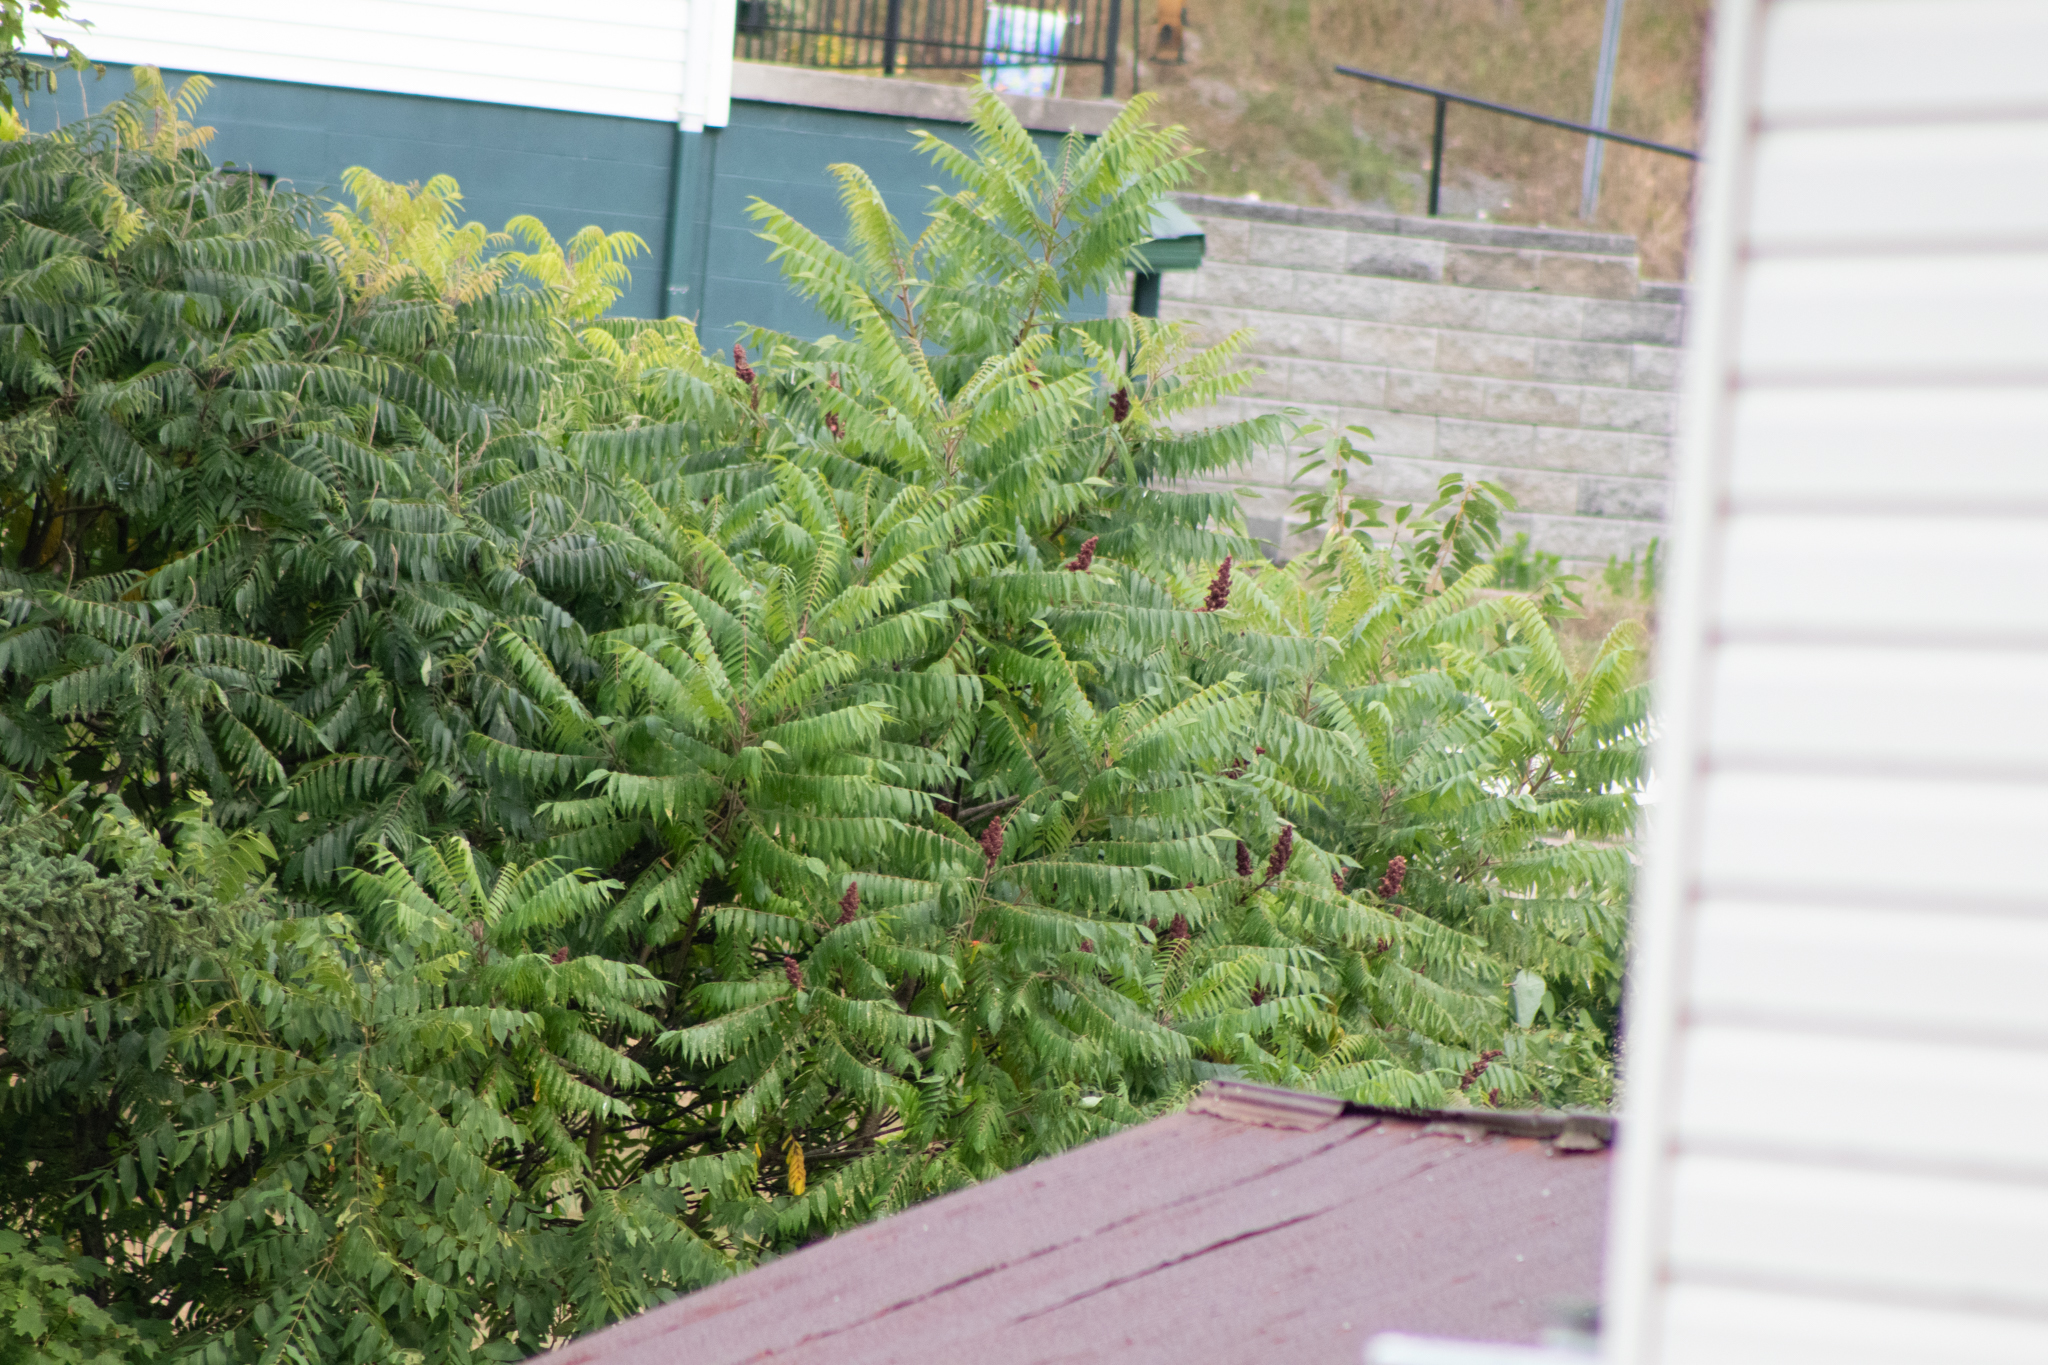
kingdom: Plantae
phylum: Tracheophyta
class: Magnoliopsida
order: Sapindales
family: Anacardiaceae
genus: Rhus
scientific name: Rhus typhina
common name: Staghorn sumac
